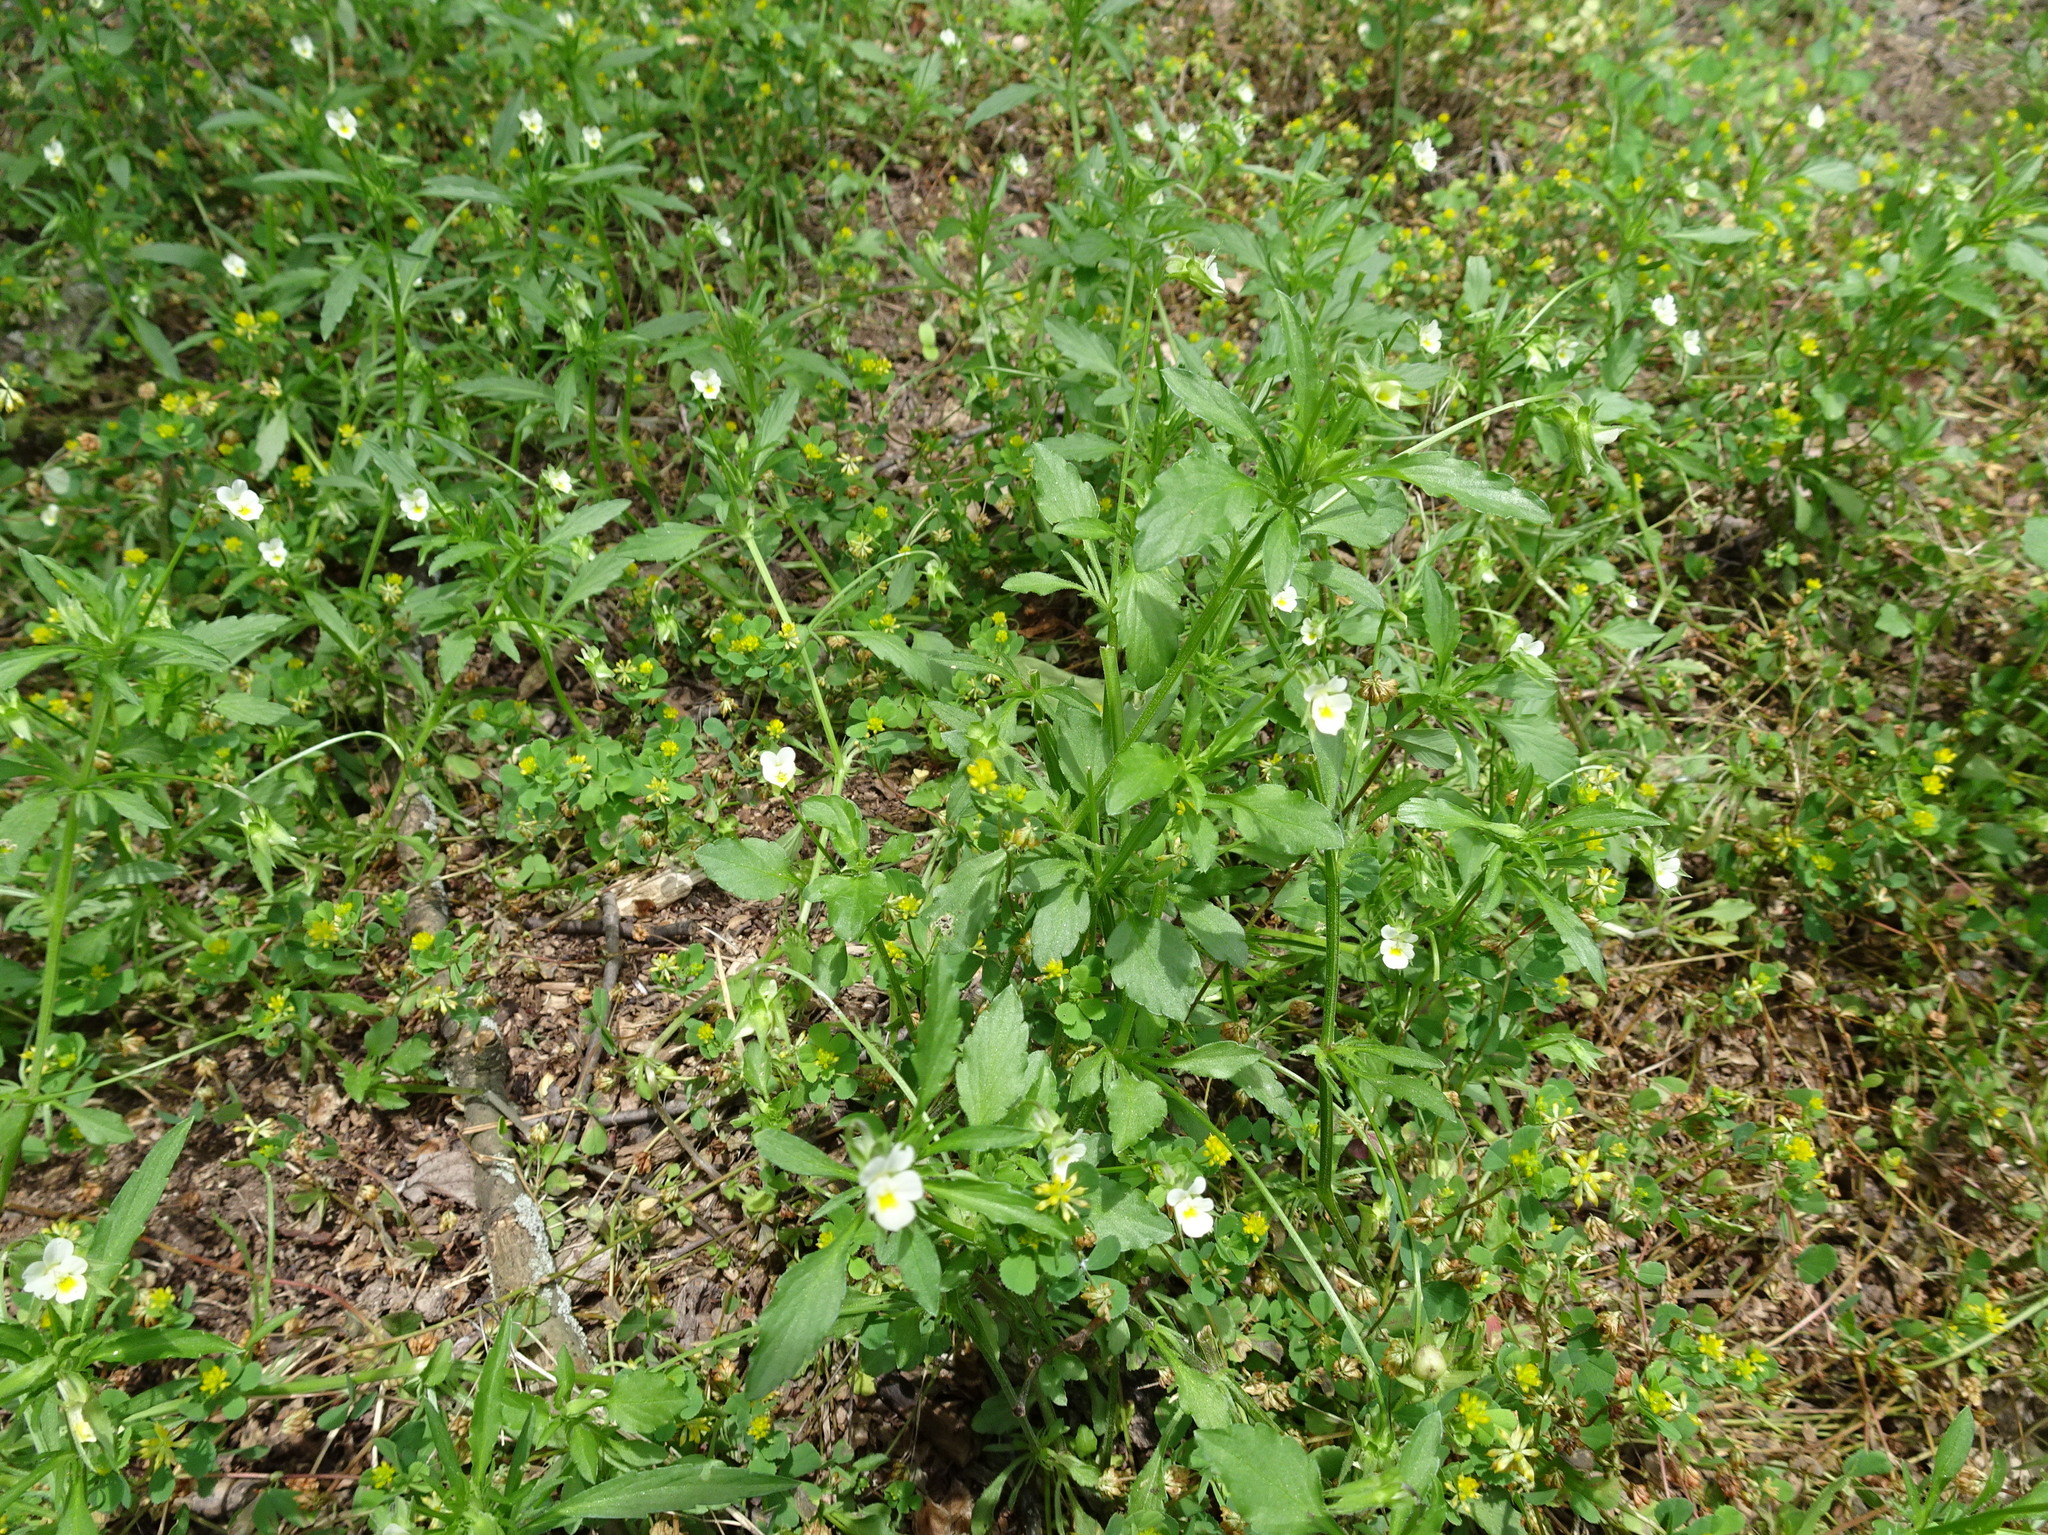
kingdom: Plantae
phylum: Tracheophyta
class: Magnoliopsida
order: Malpighiales
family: Violaceae
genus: Viola
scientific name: Viola arvensis
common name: Field pansy
